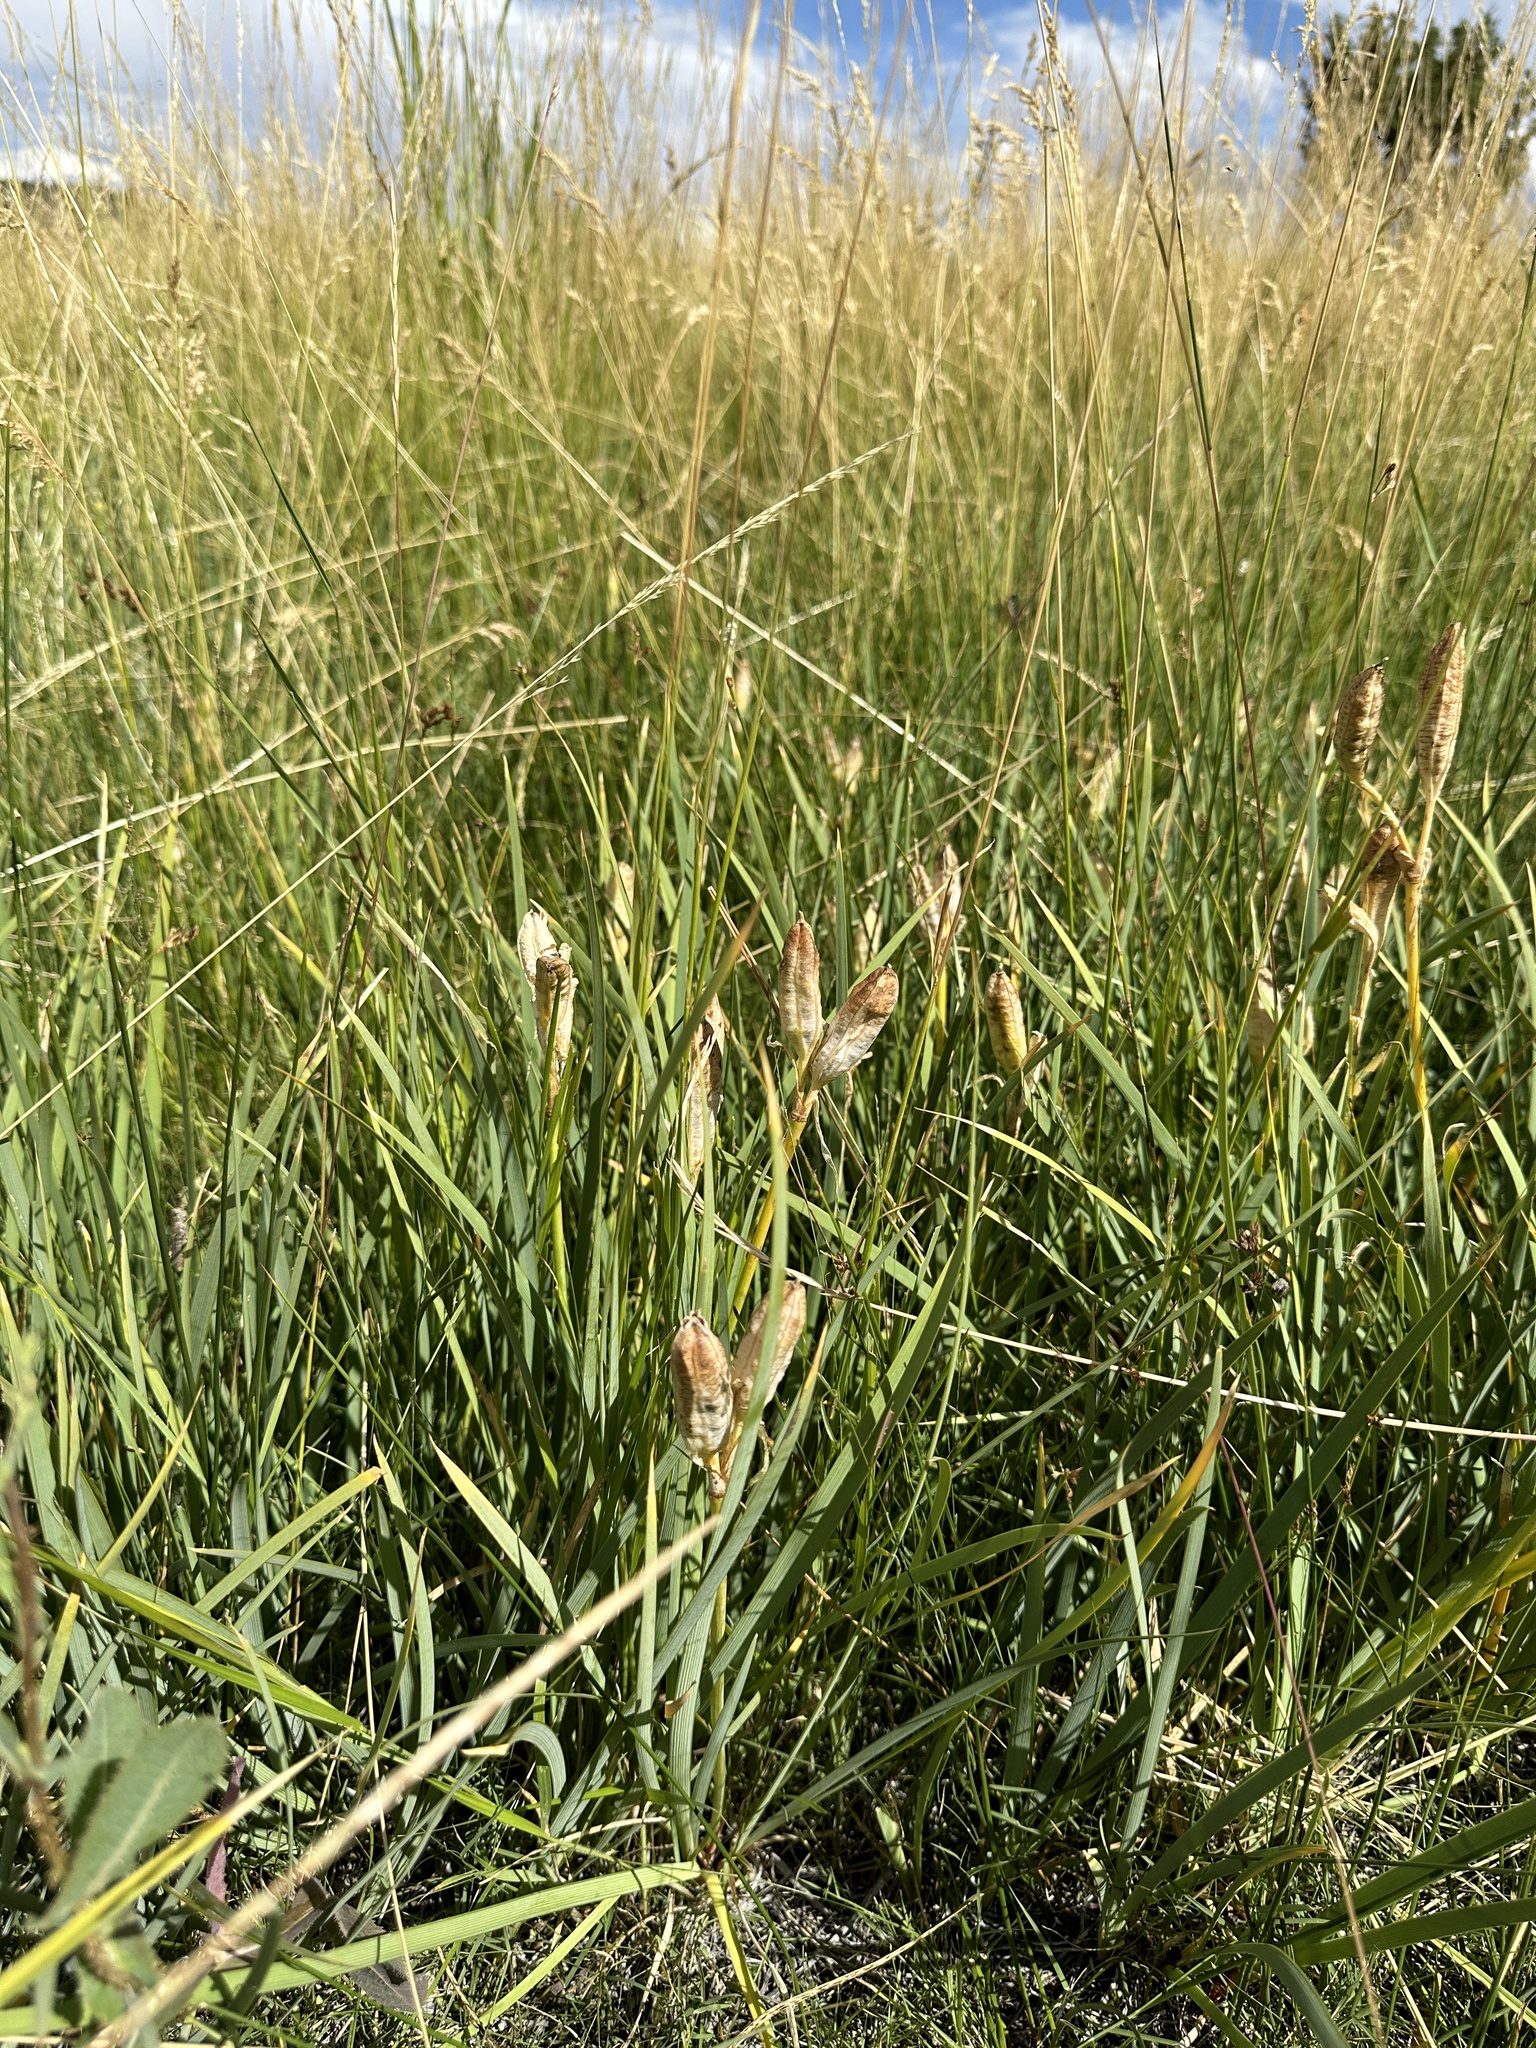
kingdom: Plantae
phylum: Tracheophyta
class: Liliopsida
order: Asparagales
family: Iridaceae
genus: Iris
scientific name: Iris missouriensis
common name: Rocky mountain iris
